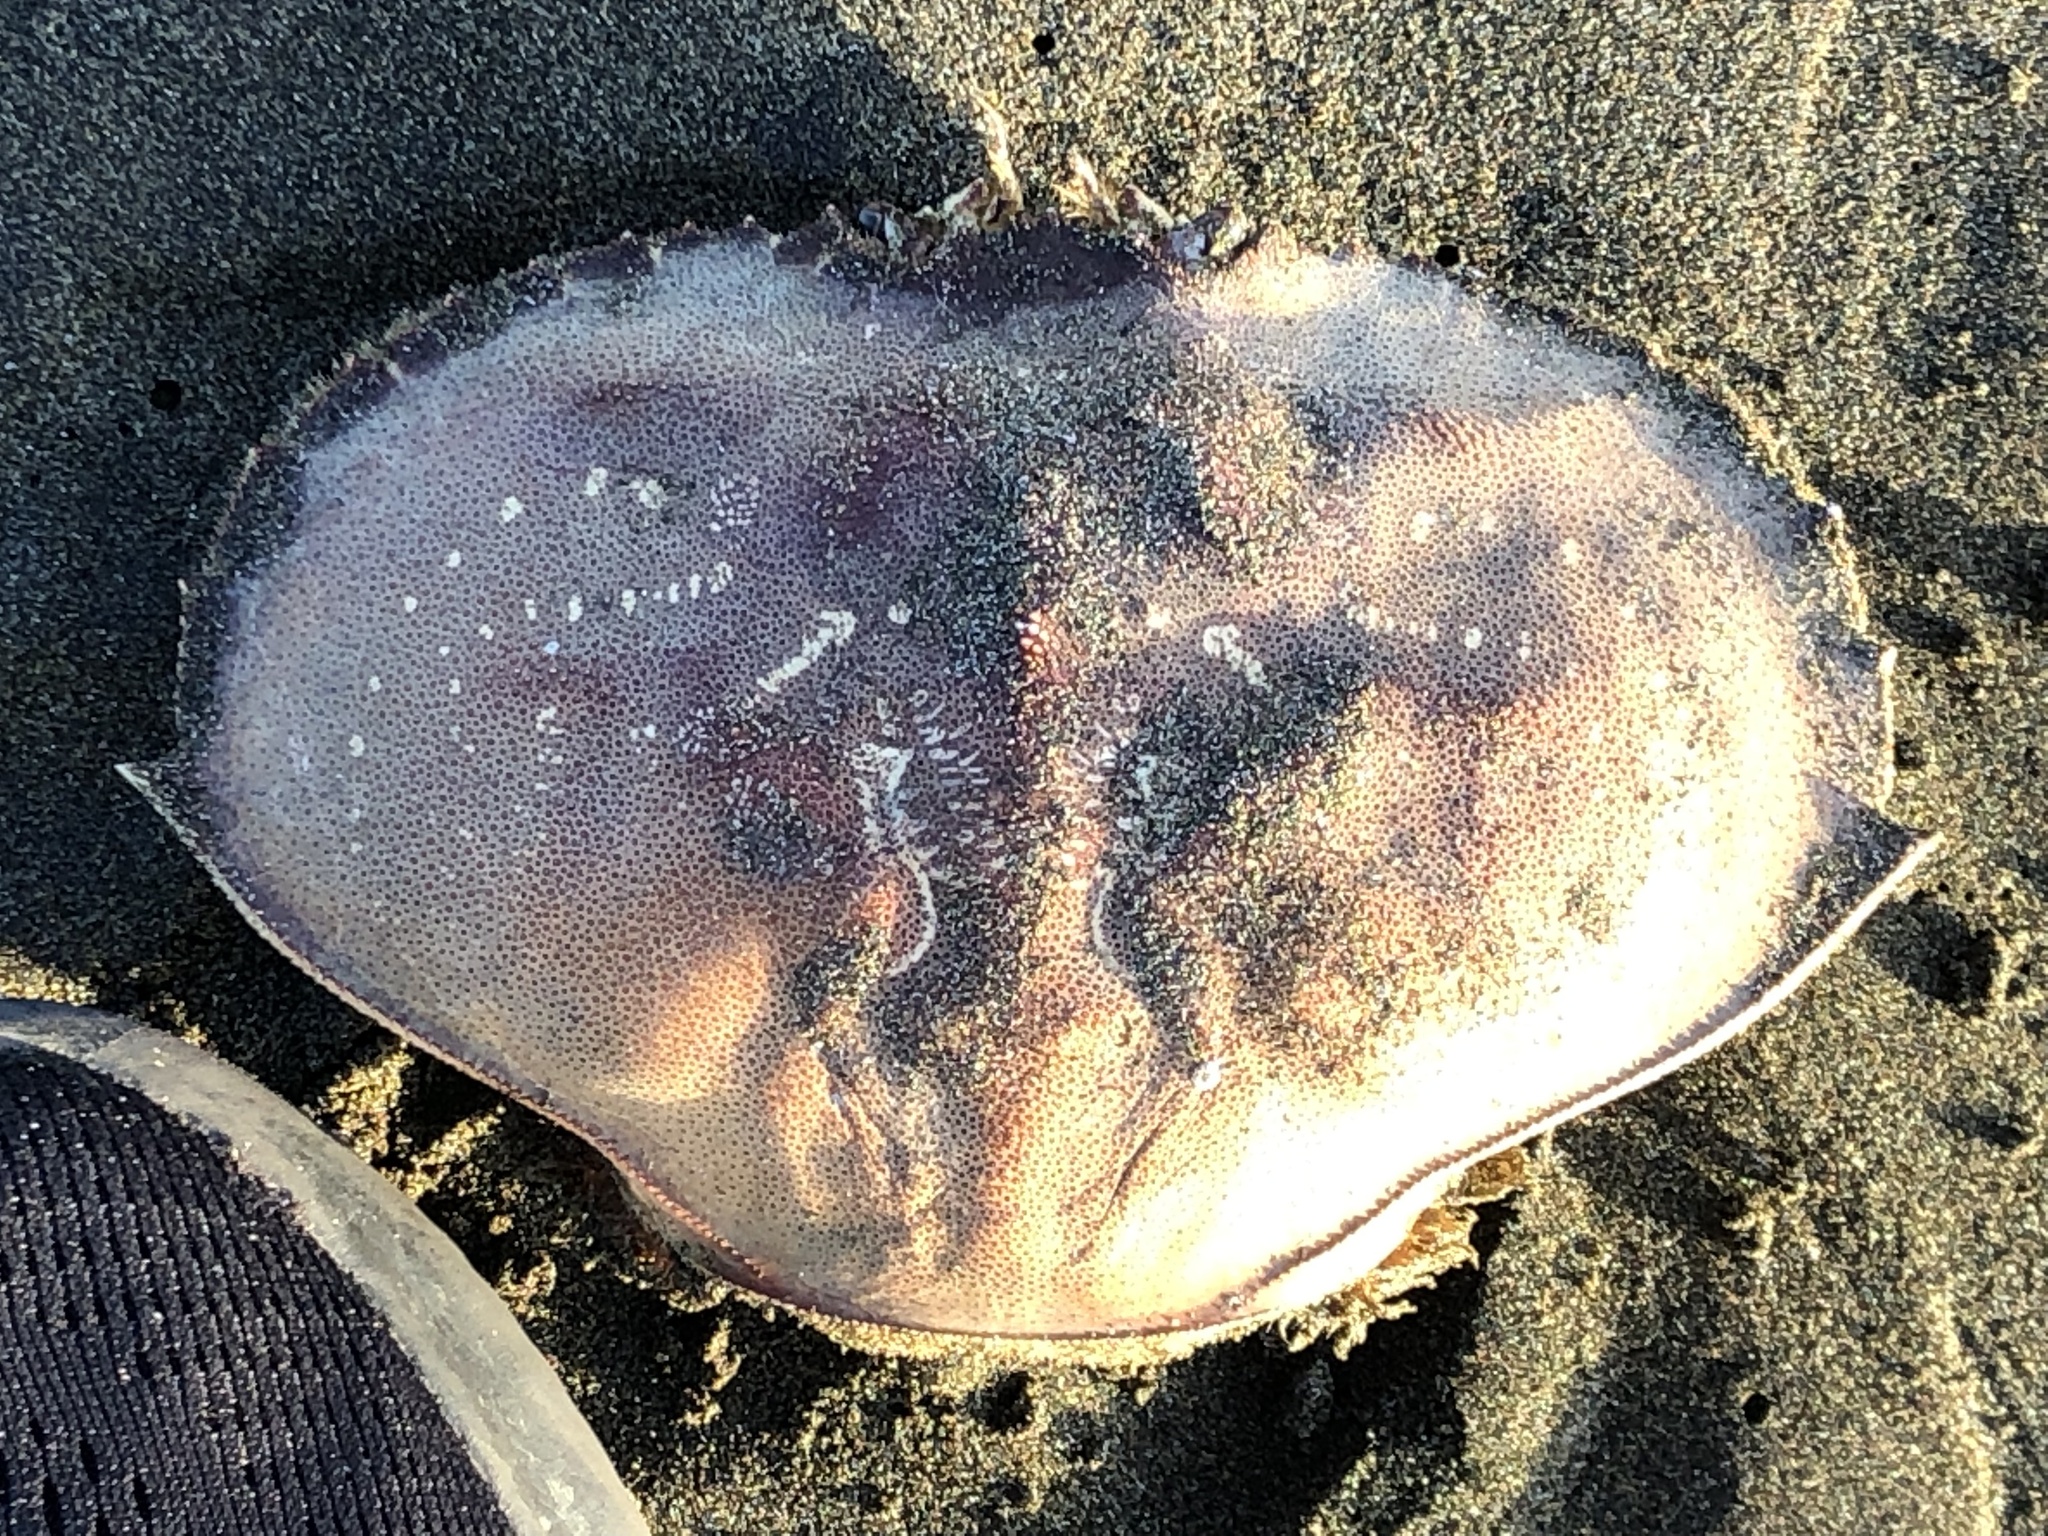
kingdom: Animalia
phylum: Arthropoda
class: Malacostraca
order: Decapoda
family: Cancridae
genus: Metacarcinus
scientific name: Metacarcinus magister
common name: Californian crab
